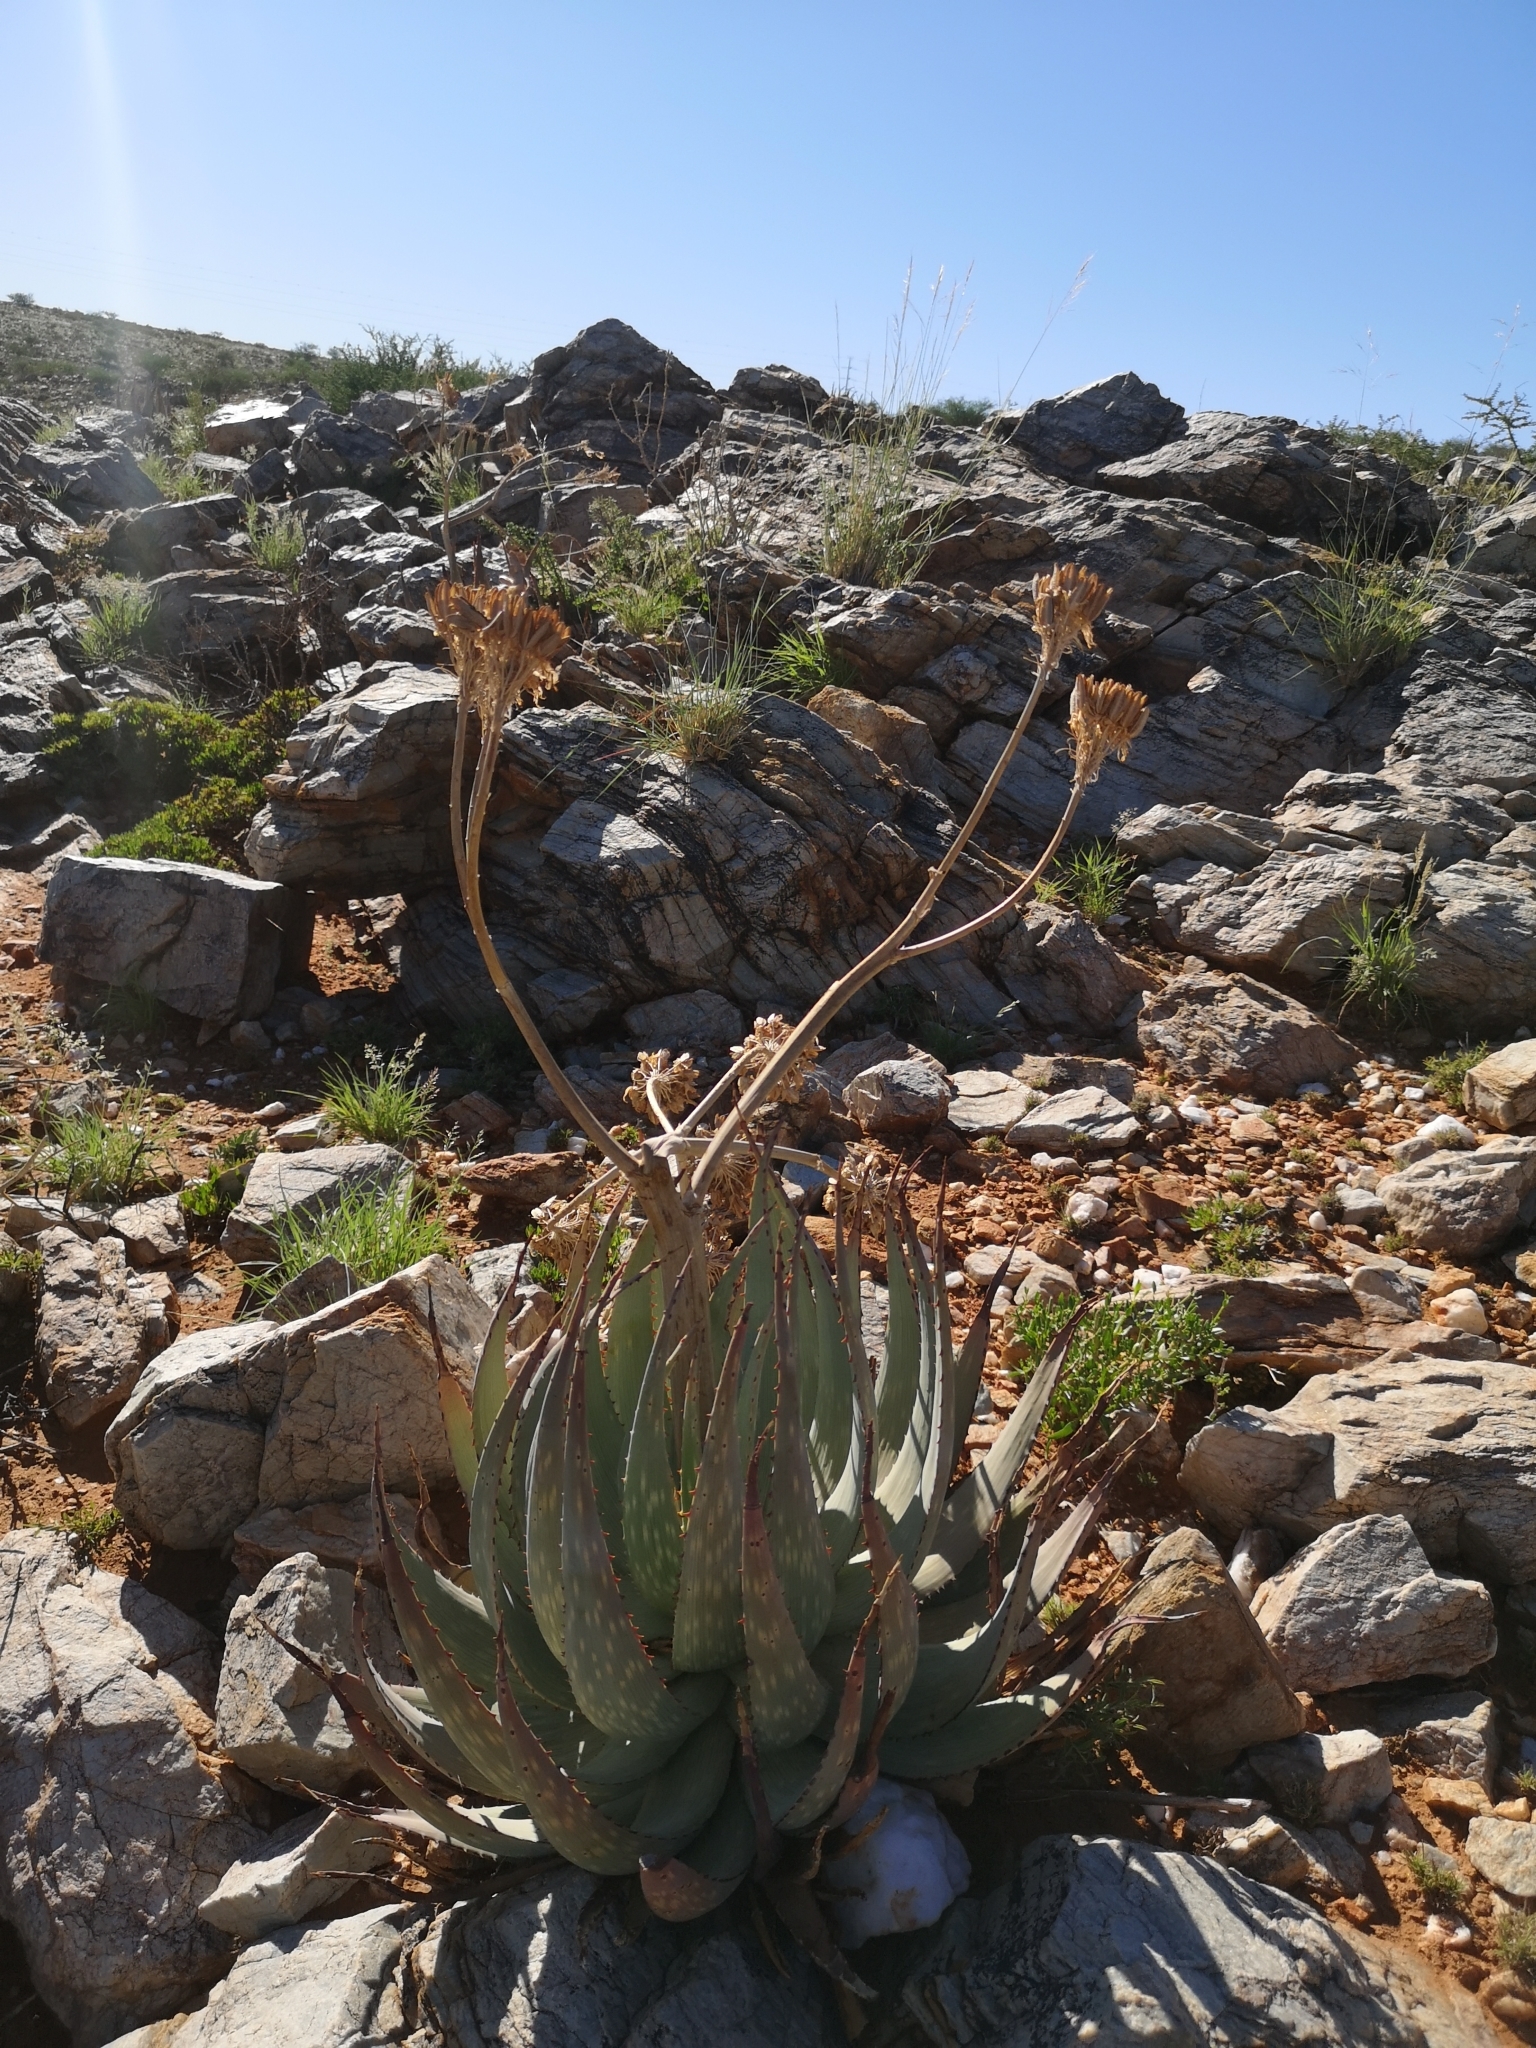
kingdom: Plantae
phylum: Tracheophyta
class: Liliopsida
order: Asparagales
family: Asphodelaceae
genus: Aloe
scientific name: Aloe hereroensis
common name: Herero aloe
